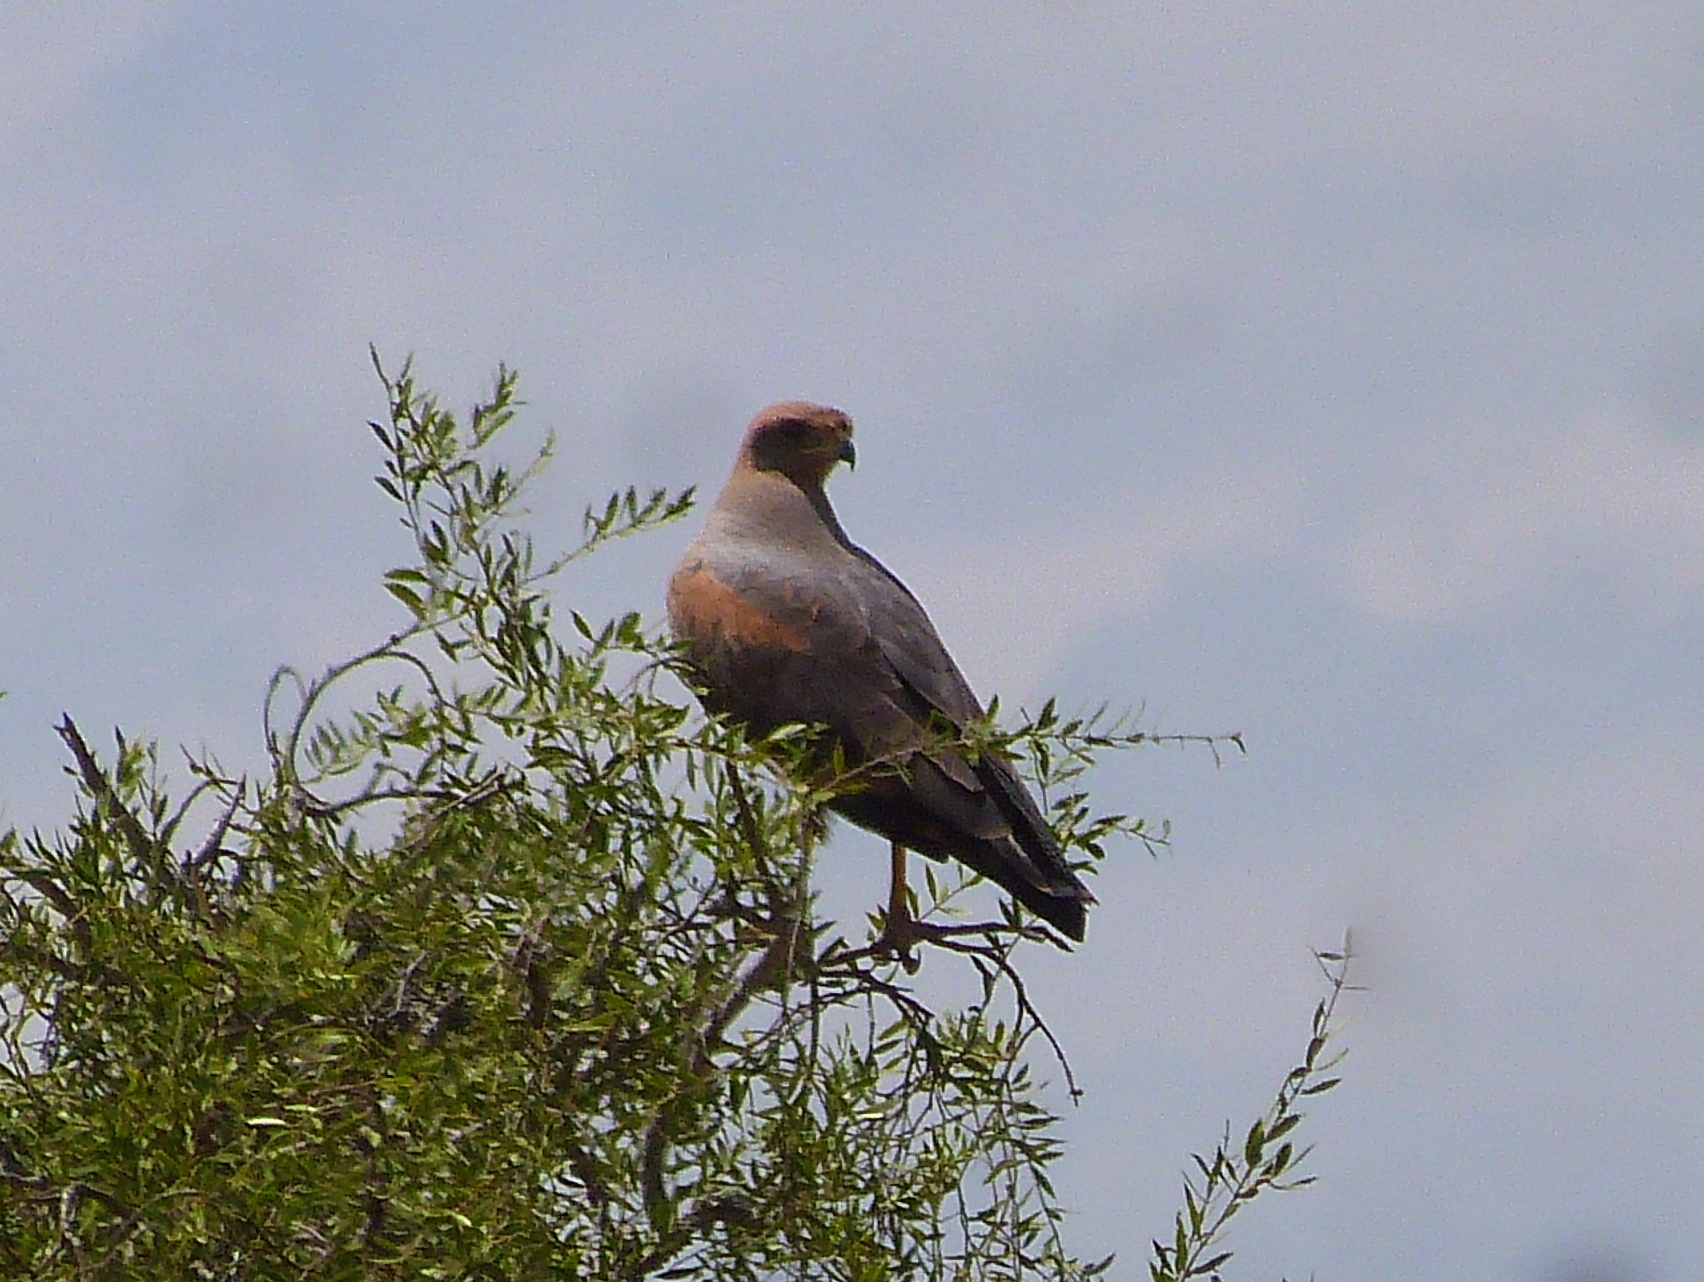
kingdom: Animalia
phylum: Chordata
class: Aves
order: Accipitriformes
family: Accipitridae
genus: Buteogallus
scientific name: Buteogallus meridionalis
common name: Savanna hawk
